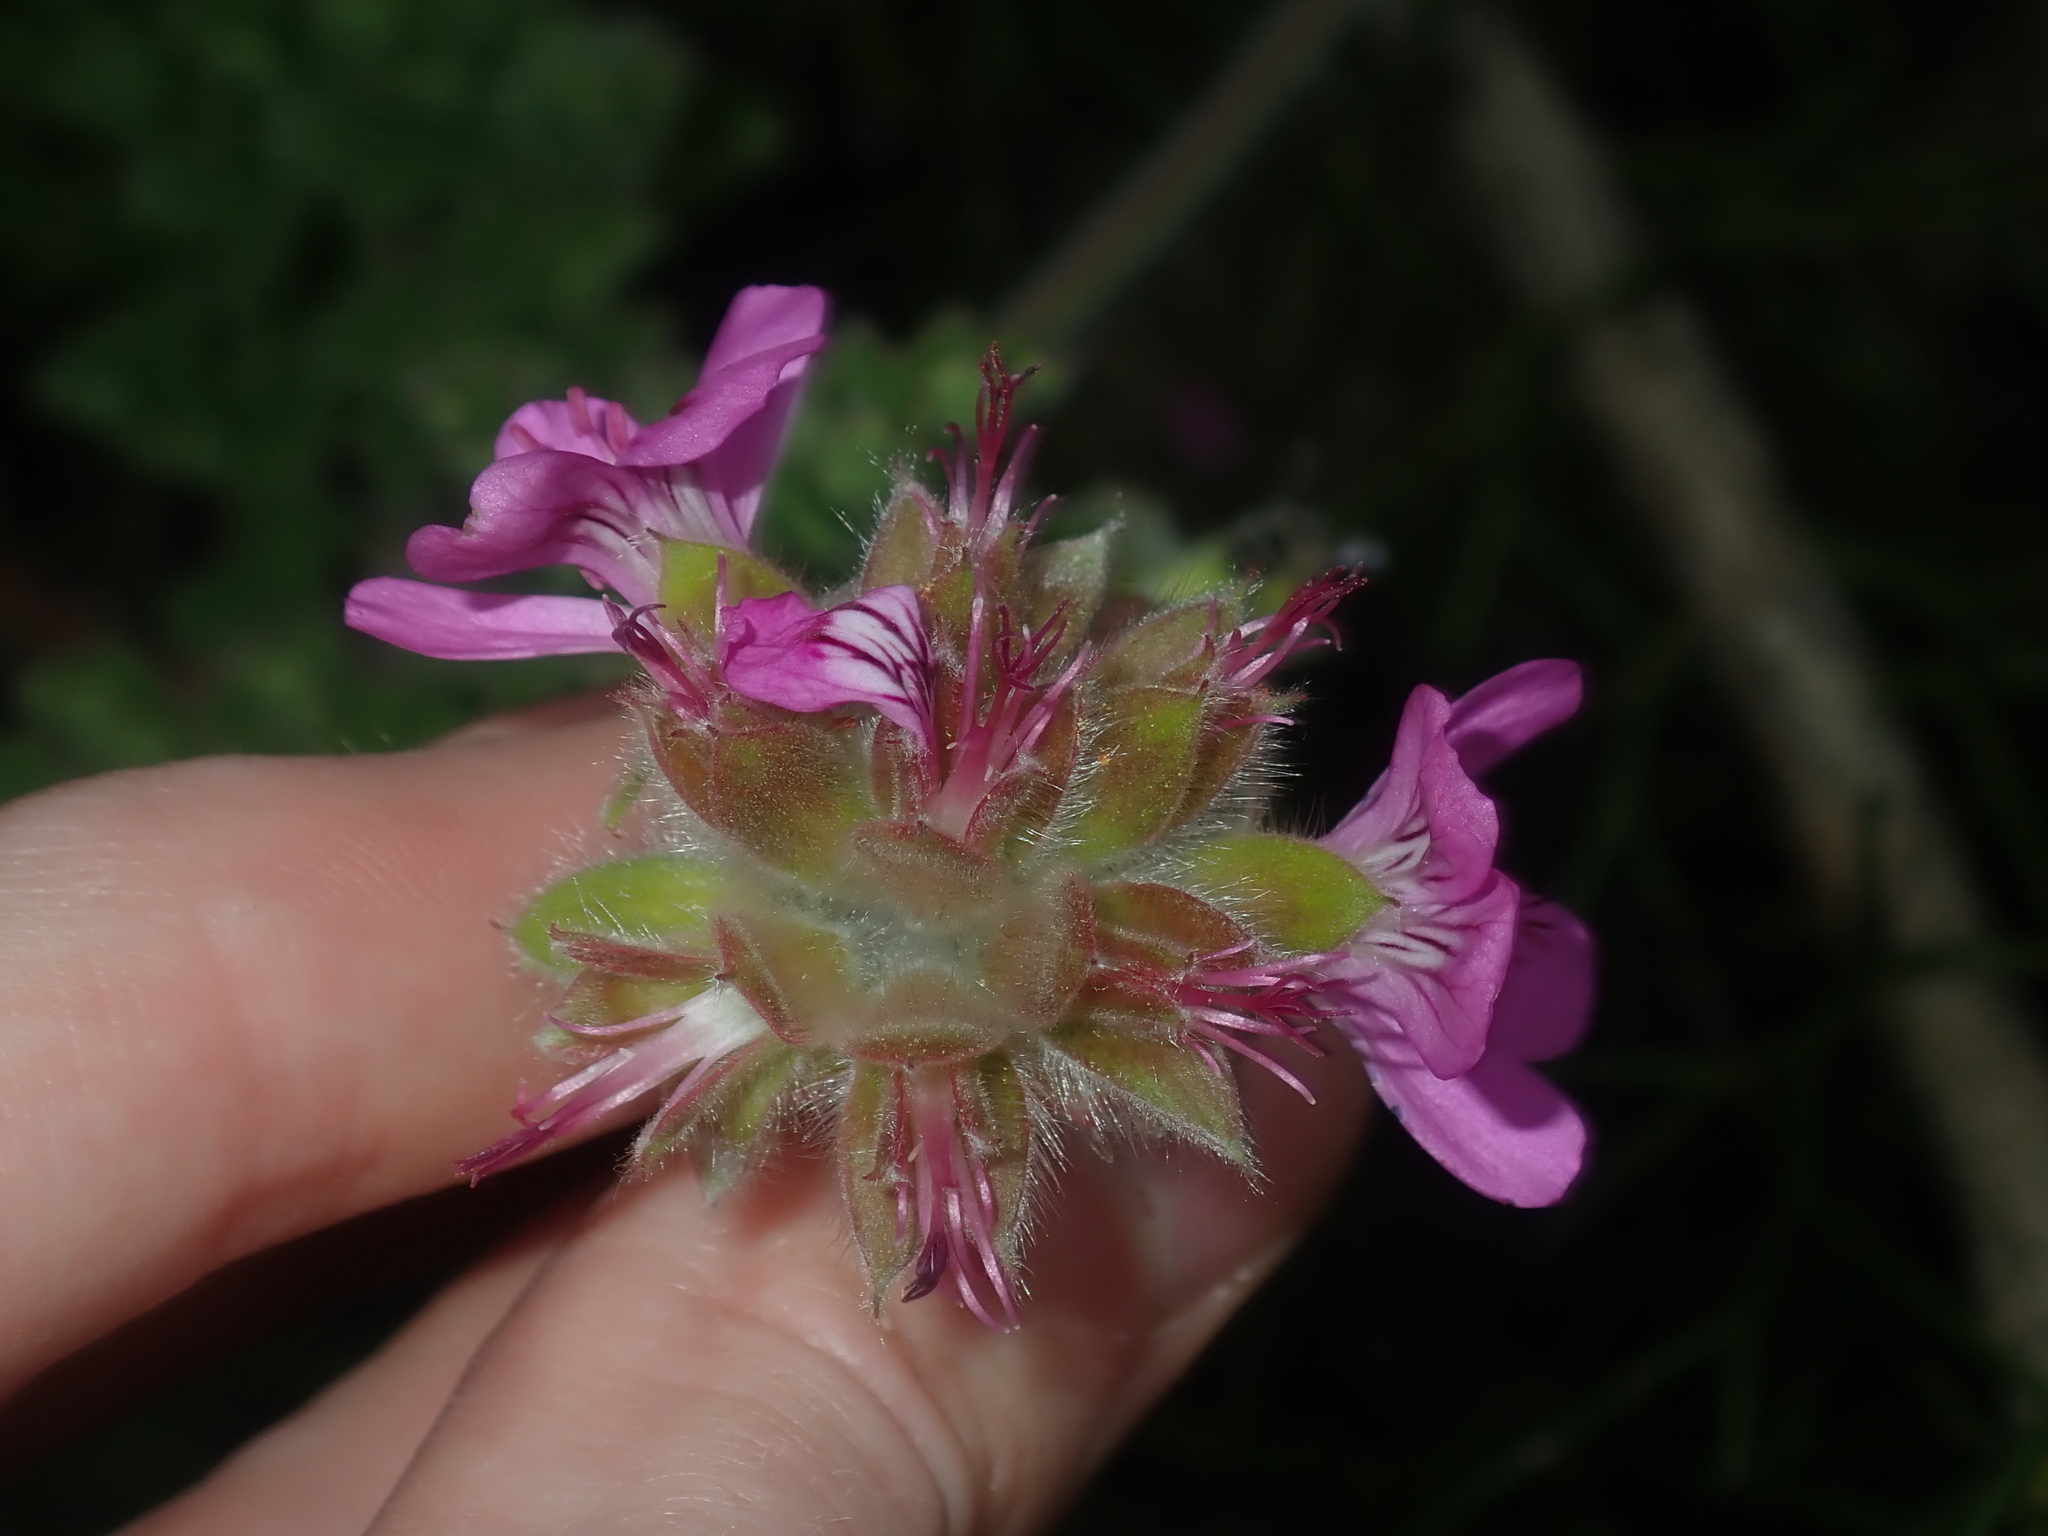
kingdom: Plantae
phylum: Tracheophyta
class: Magnoliopsida
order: Geraniales
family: Geraniaceae
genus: Pelargonium
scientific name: Pelargonium capitatum
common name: Rose scented geranium
